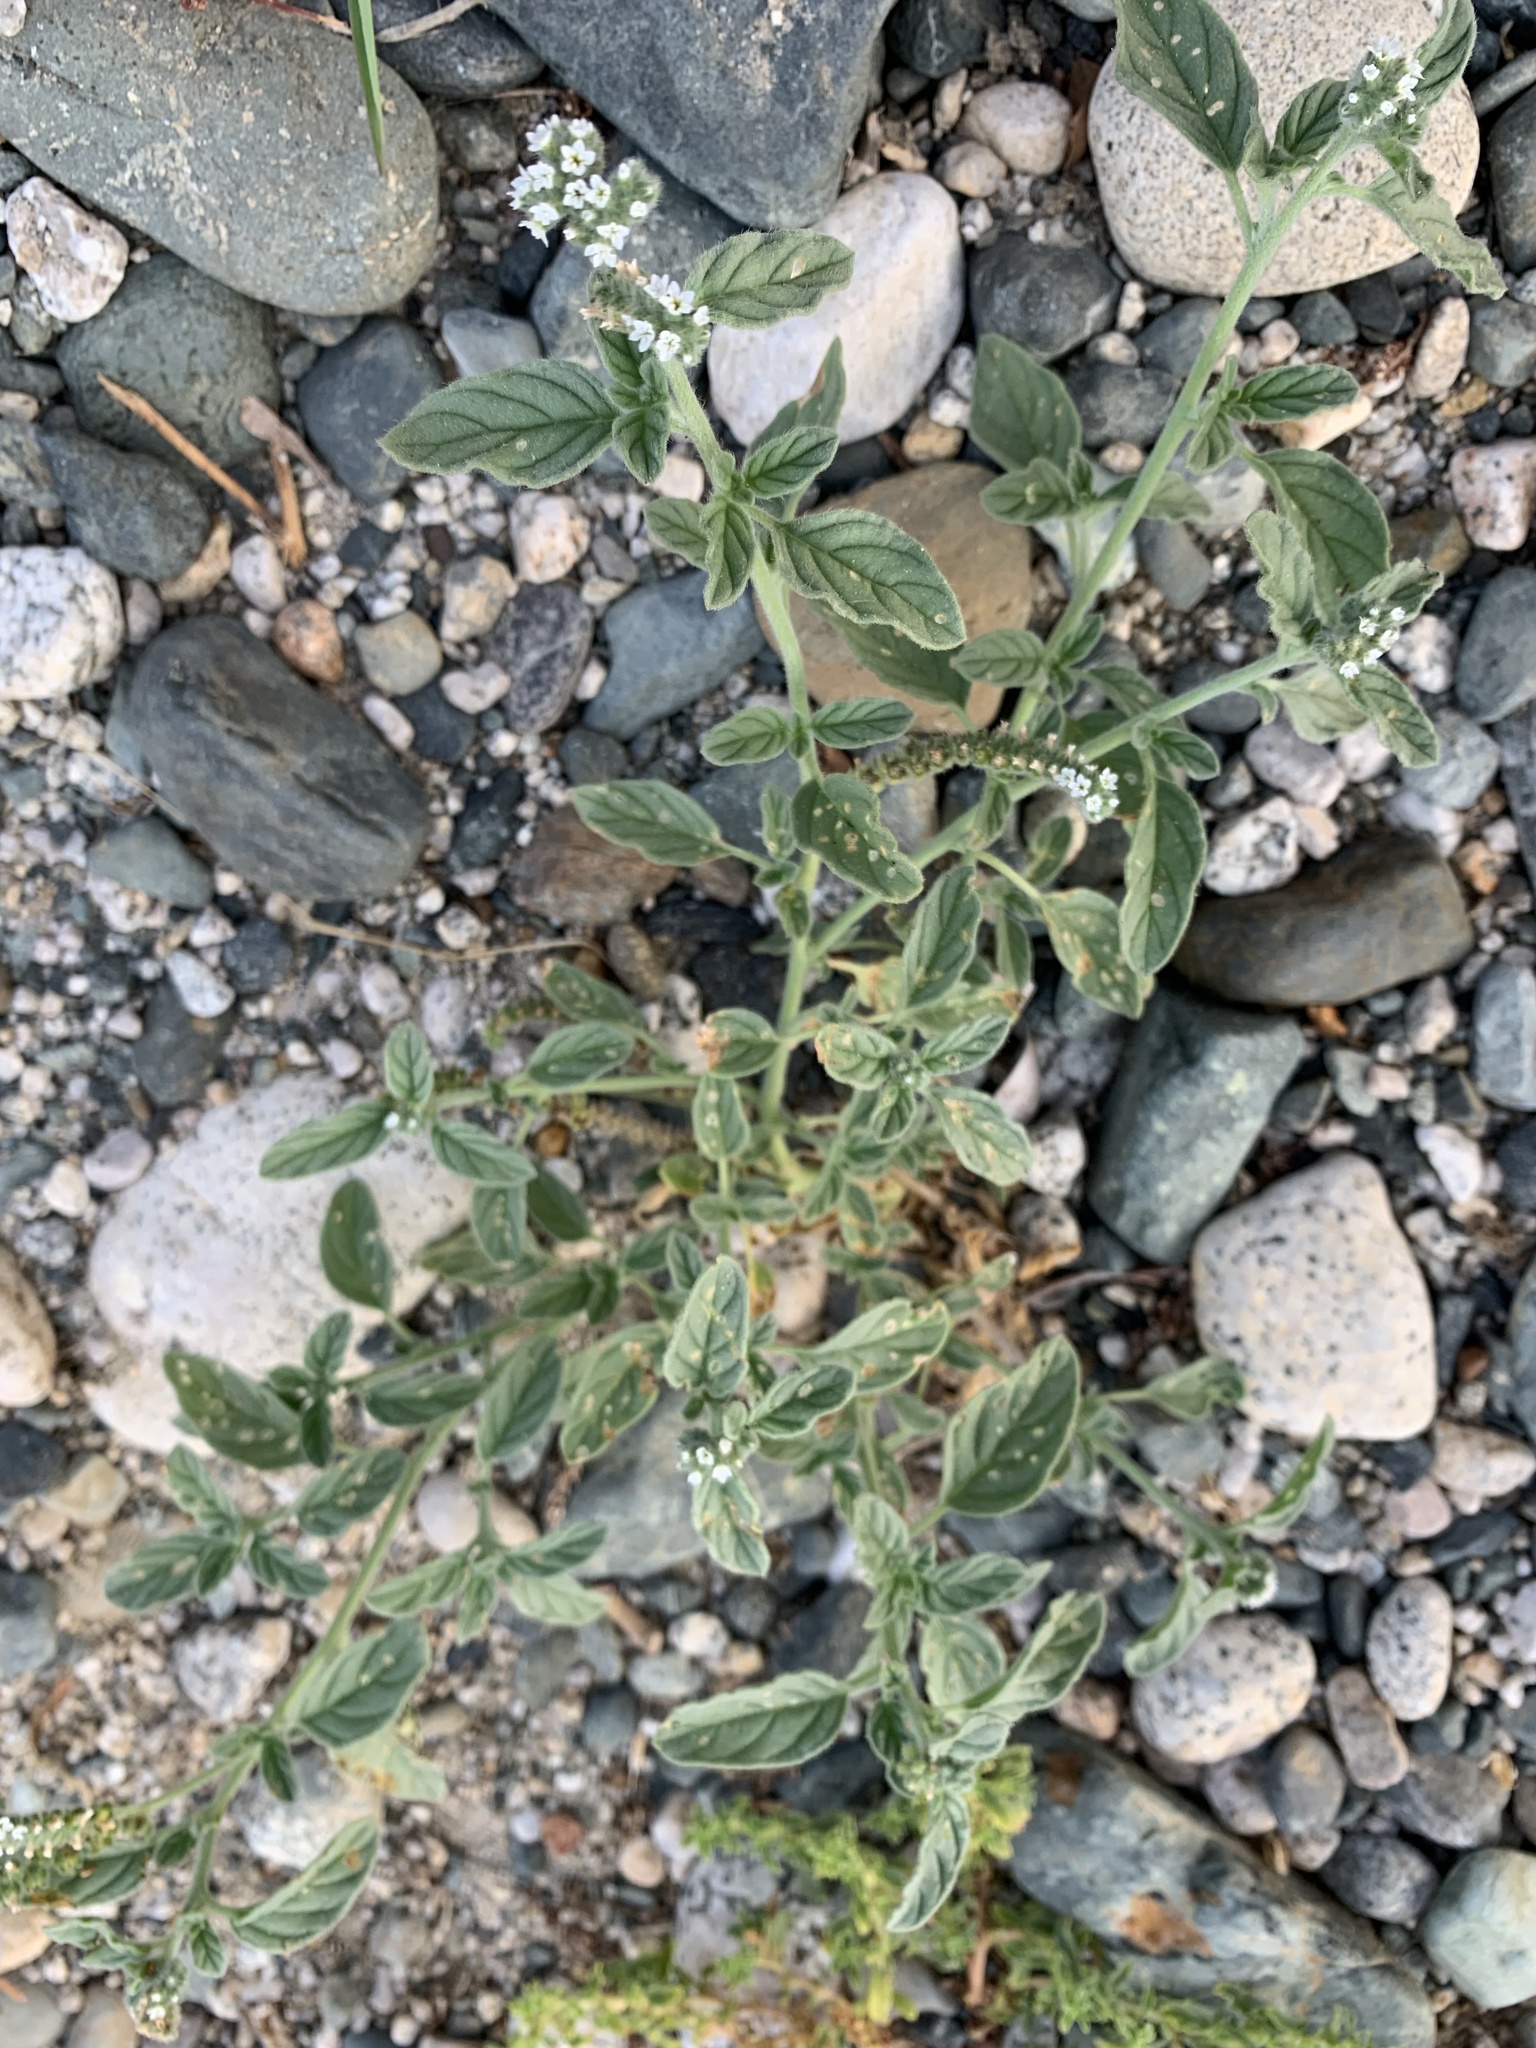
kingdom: Plantae
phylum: Tracheophyta
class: Magnoliopsida
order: Boraginales
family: Heliotropiaceae
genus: Heliotropium
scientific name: Heliotropium europaeum
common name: European heliotrope
